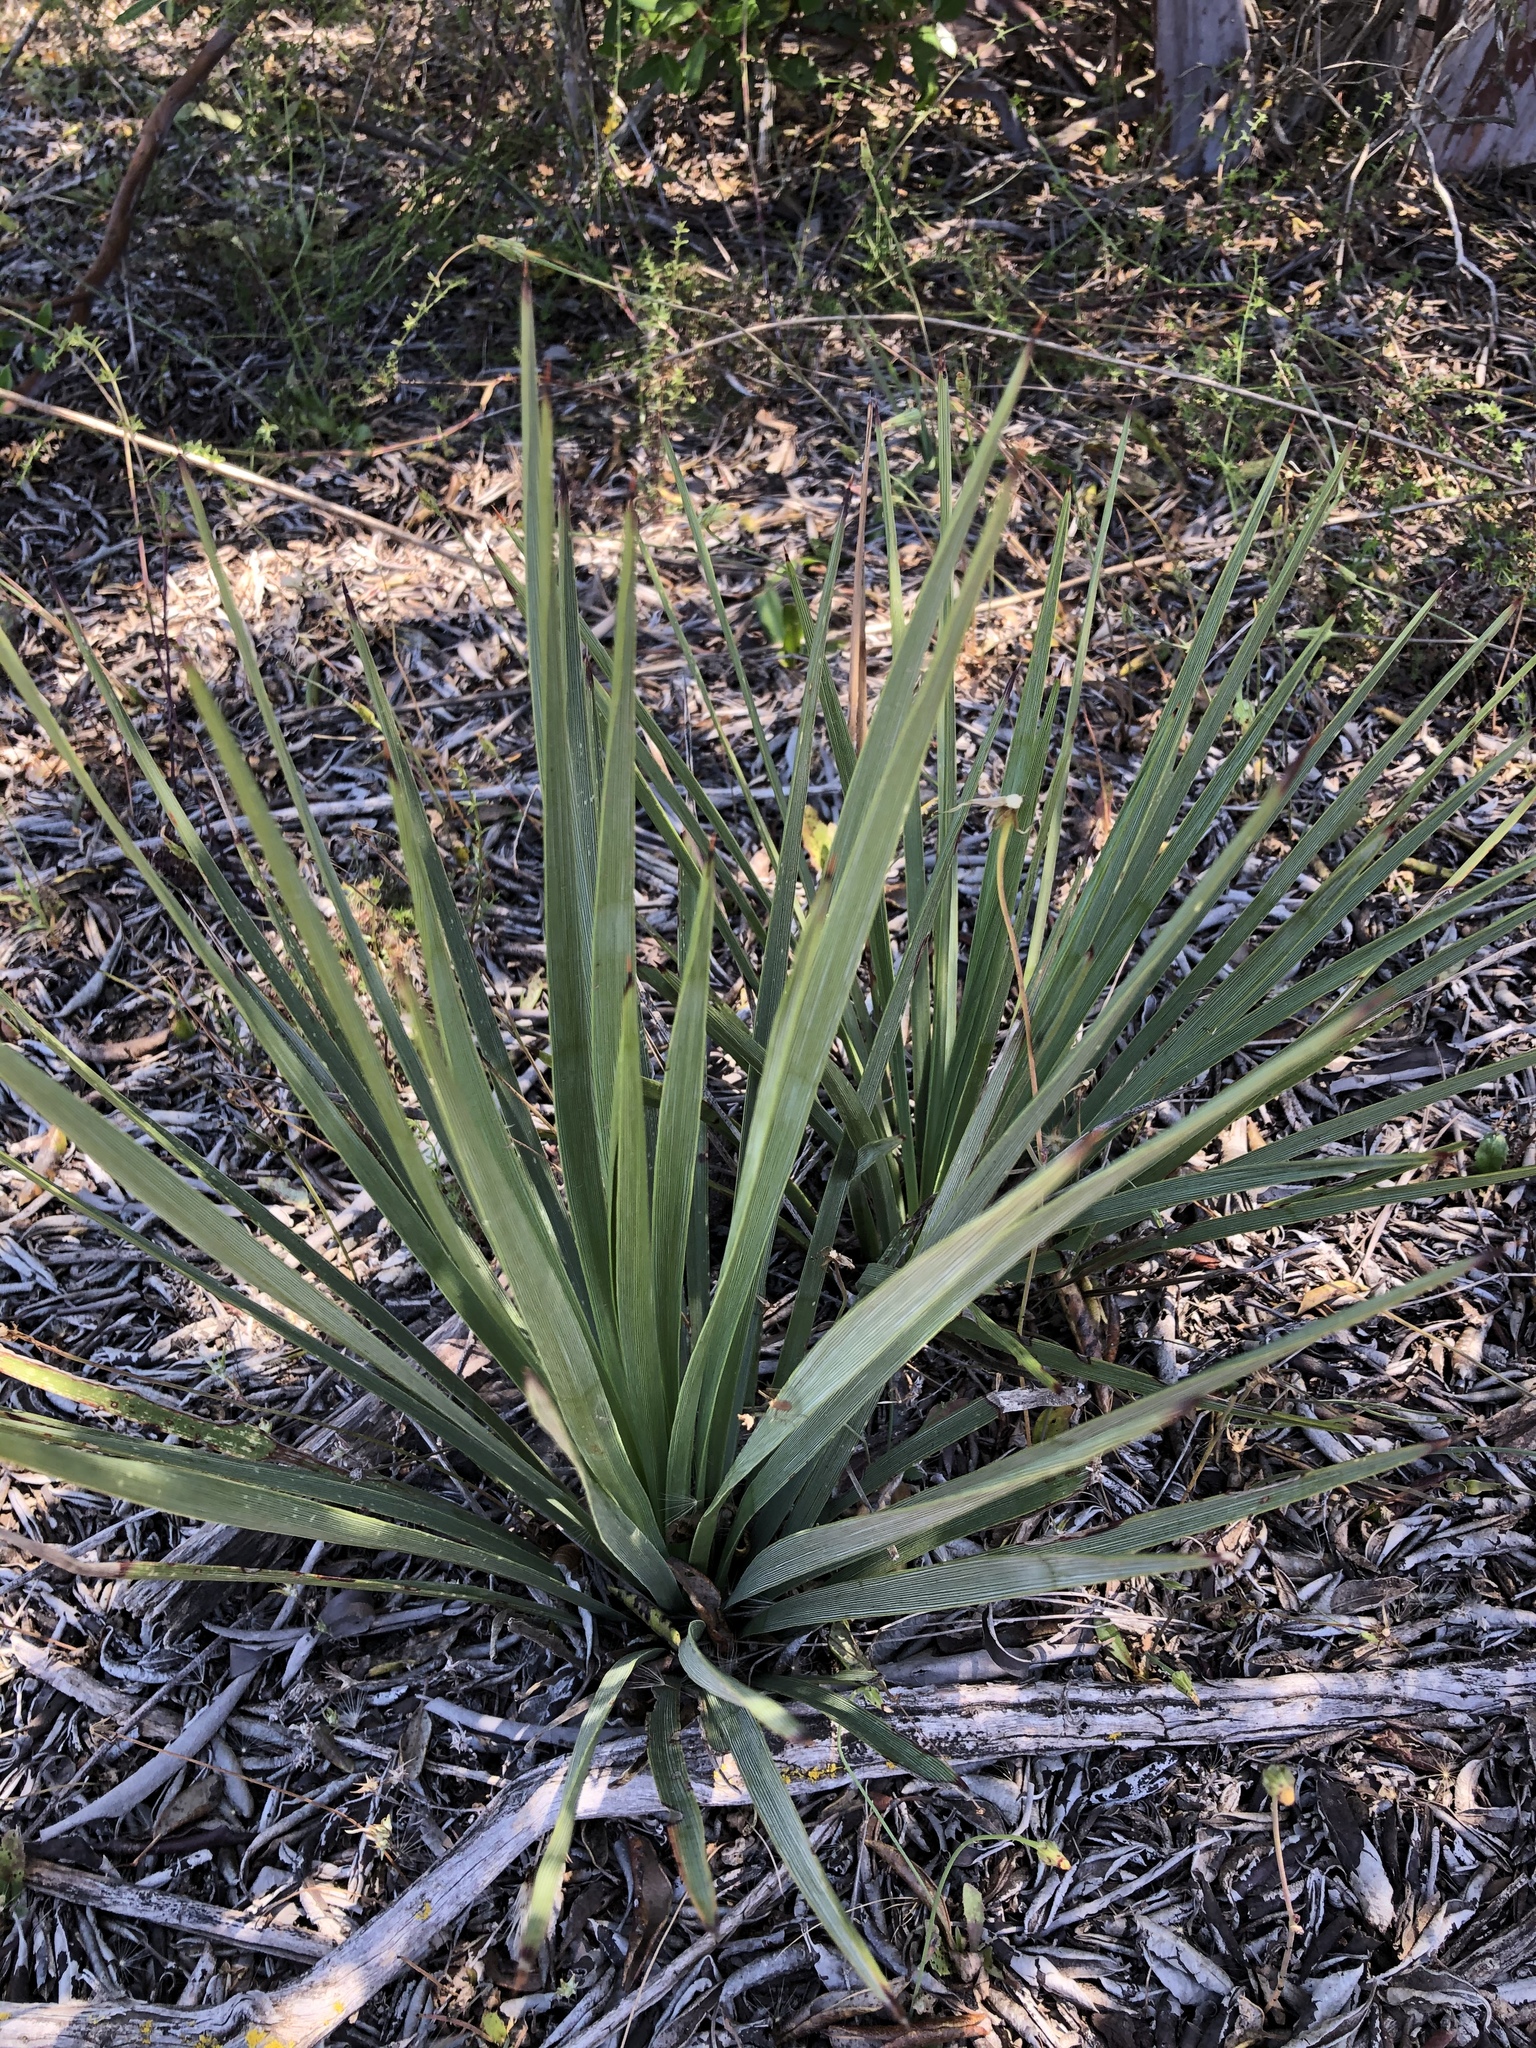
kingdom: Plantae
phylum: Tracheophyta
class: Liliopsida
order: Asparagales
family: Asparagaceae
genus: Hesperoyucca
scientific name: Hesperoyucca whipplei
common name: Our lord's-candle
